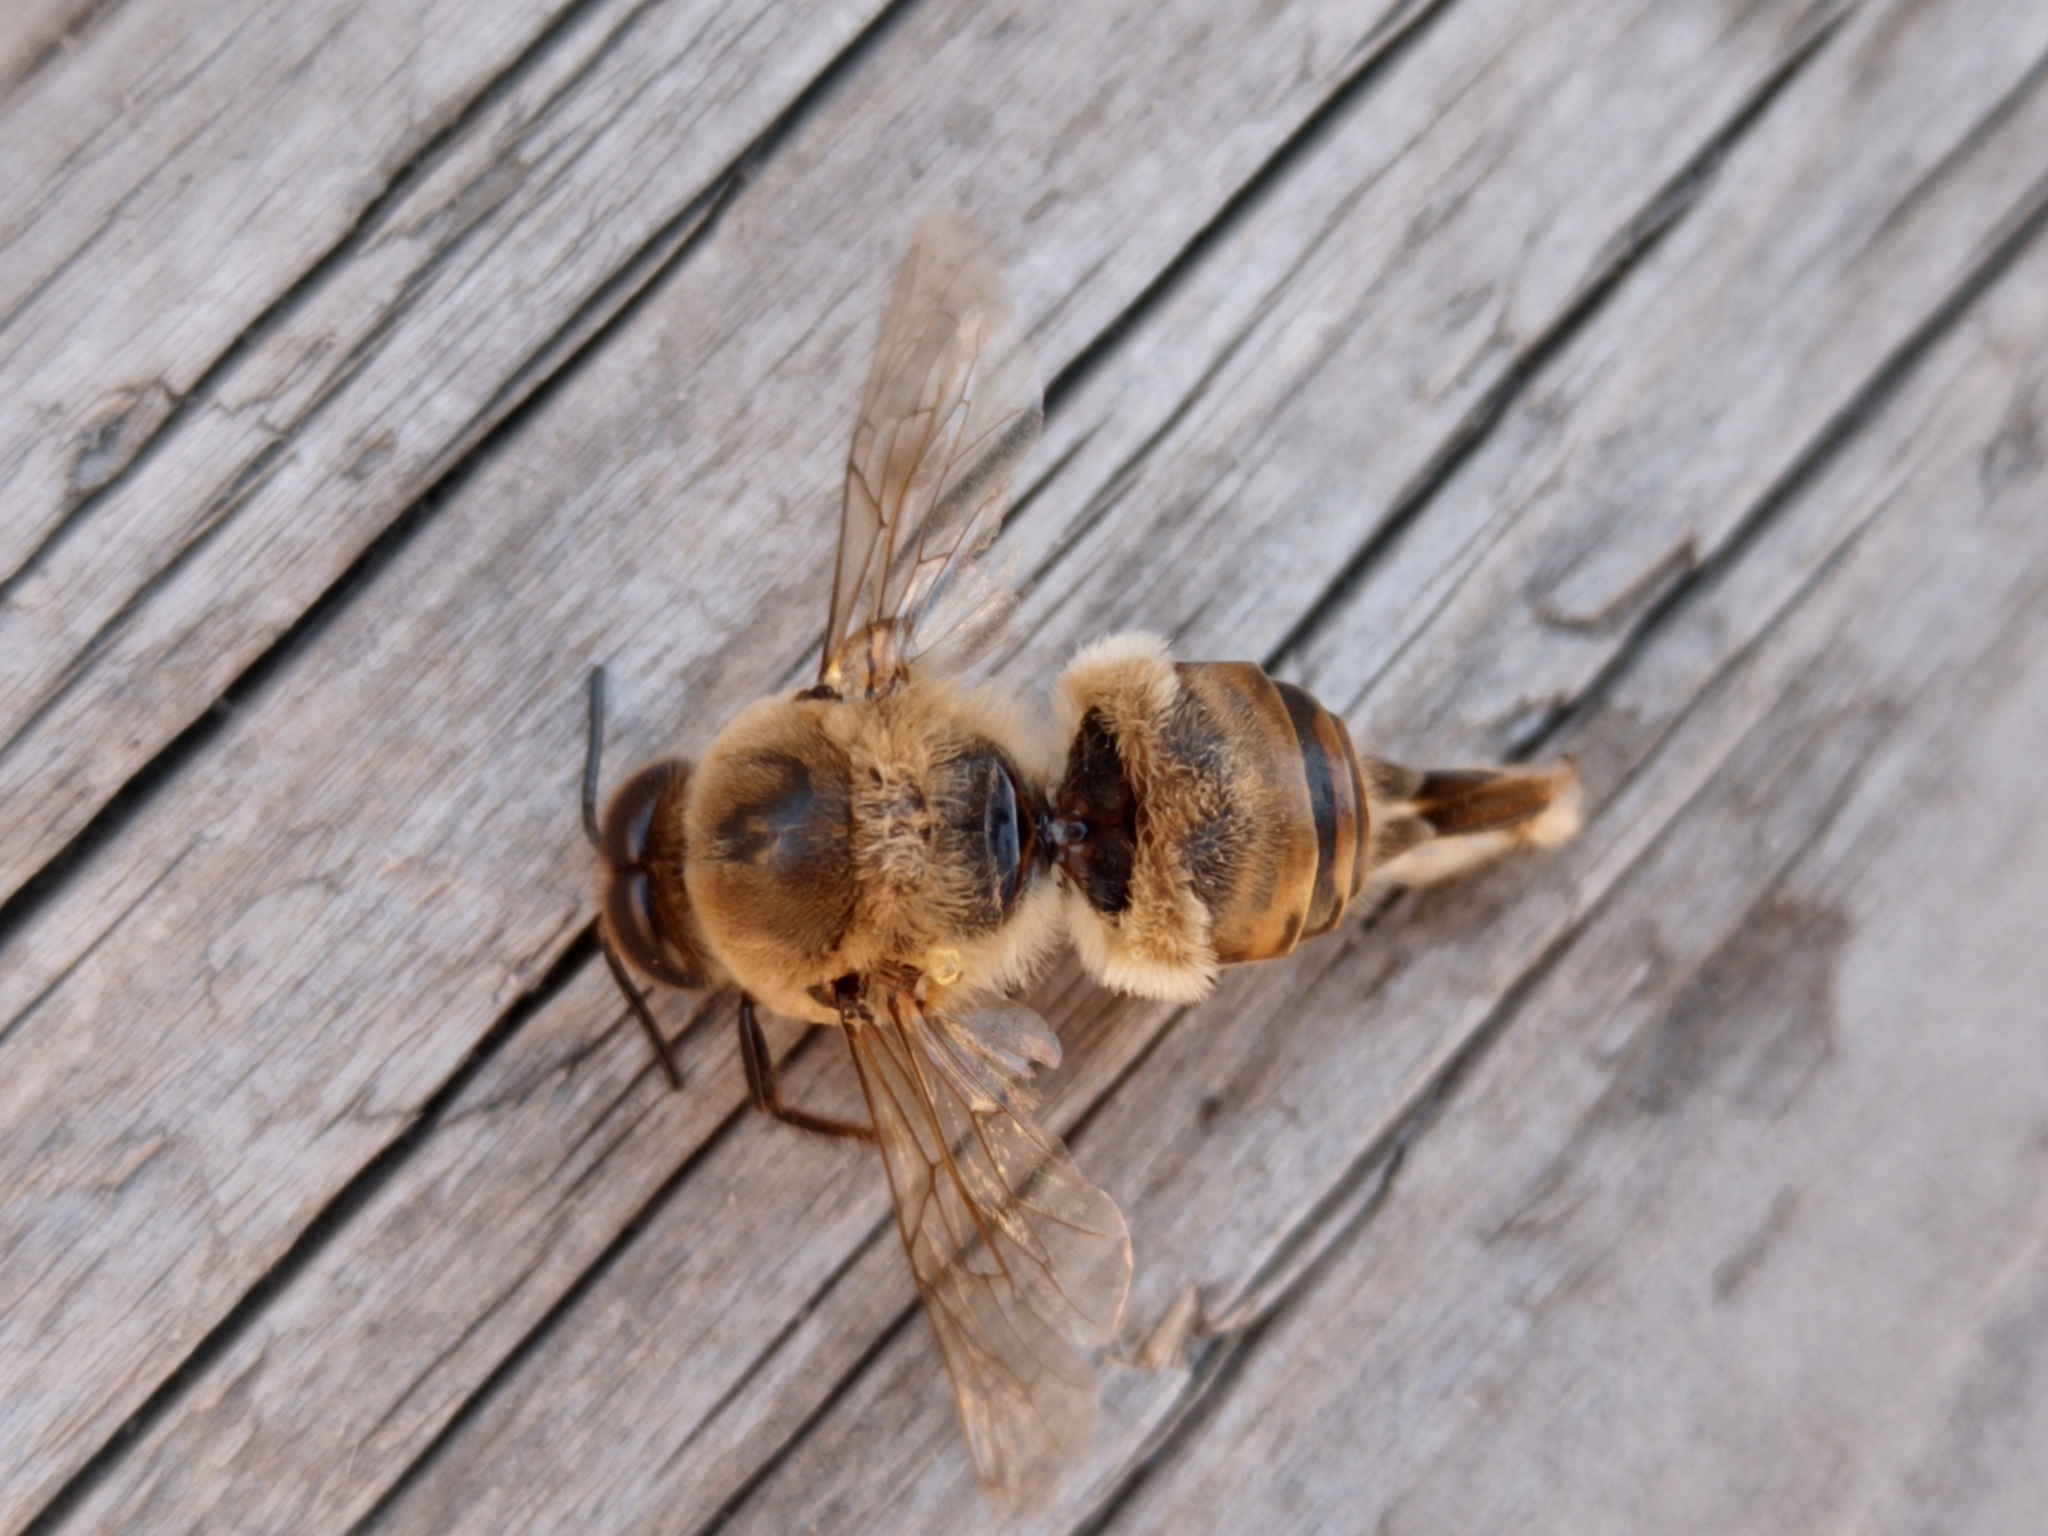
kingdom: Animalia
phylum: Arthropoda
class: Insecta
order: Hymenoptera
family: Apidae
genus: Apis
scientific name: Apis mellifera
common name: Honey bee
